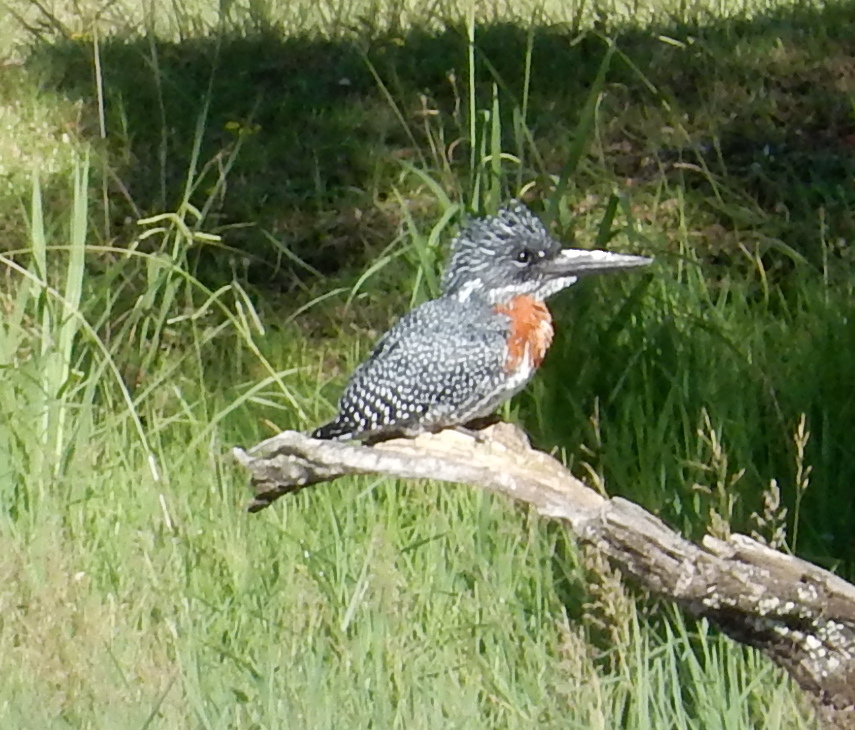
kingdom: Animalia
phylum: Chordata
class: Aves
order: Coraciiformes
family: Alcedinidae
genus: Megaceryle
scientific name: Megaceryle maxima
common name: Giant kingfisher
